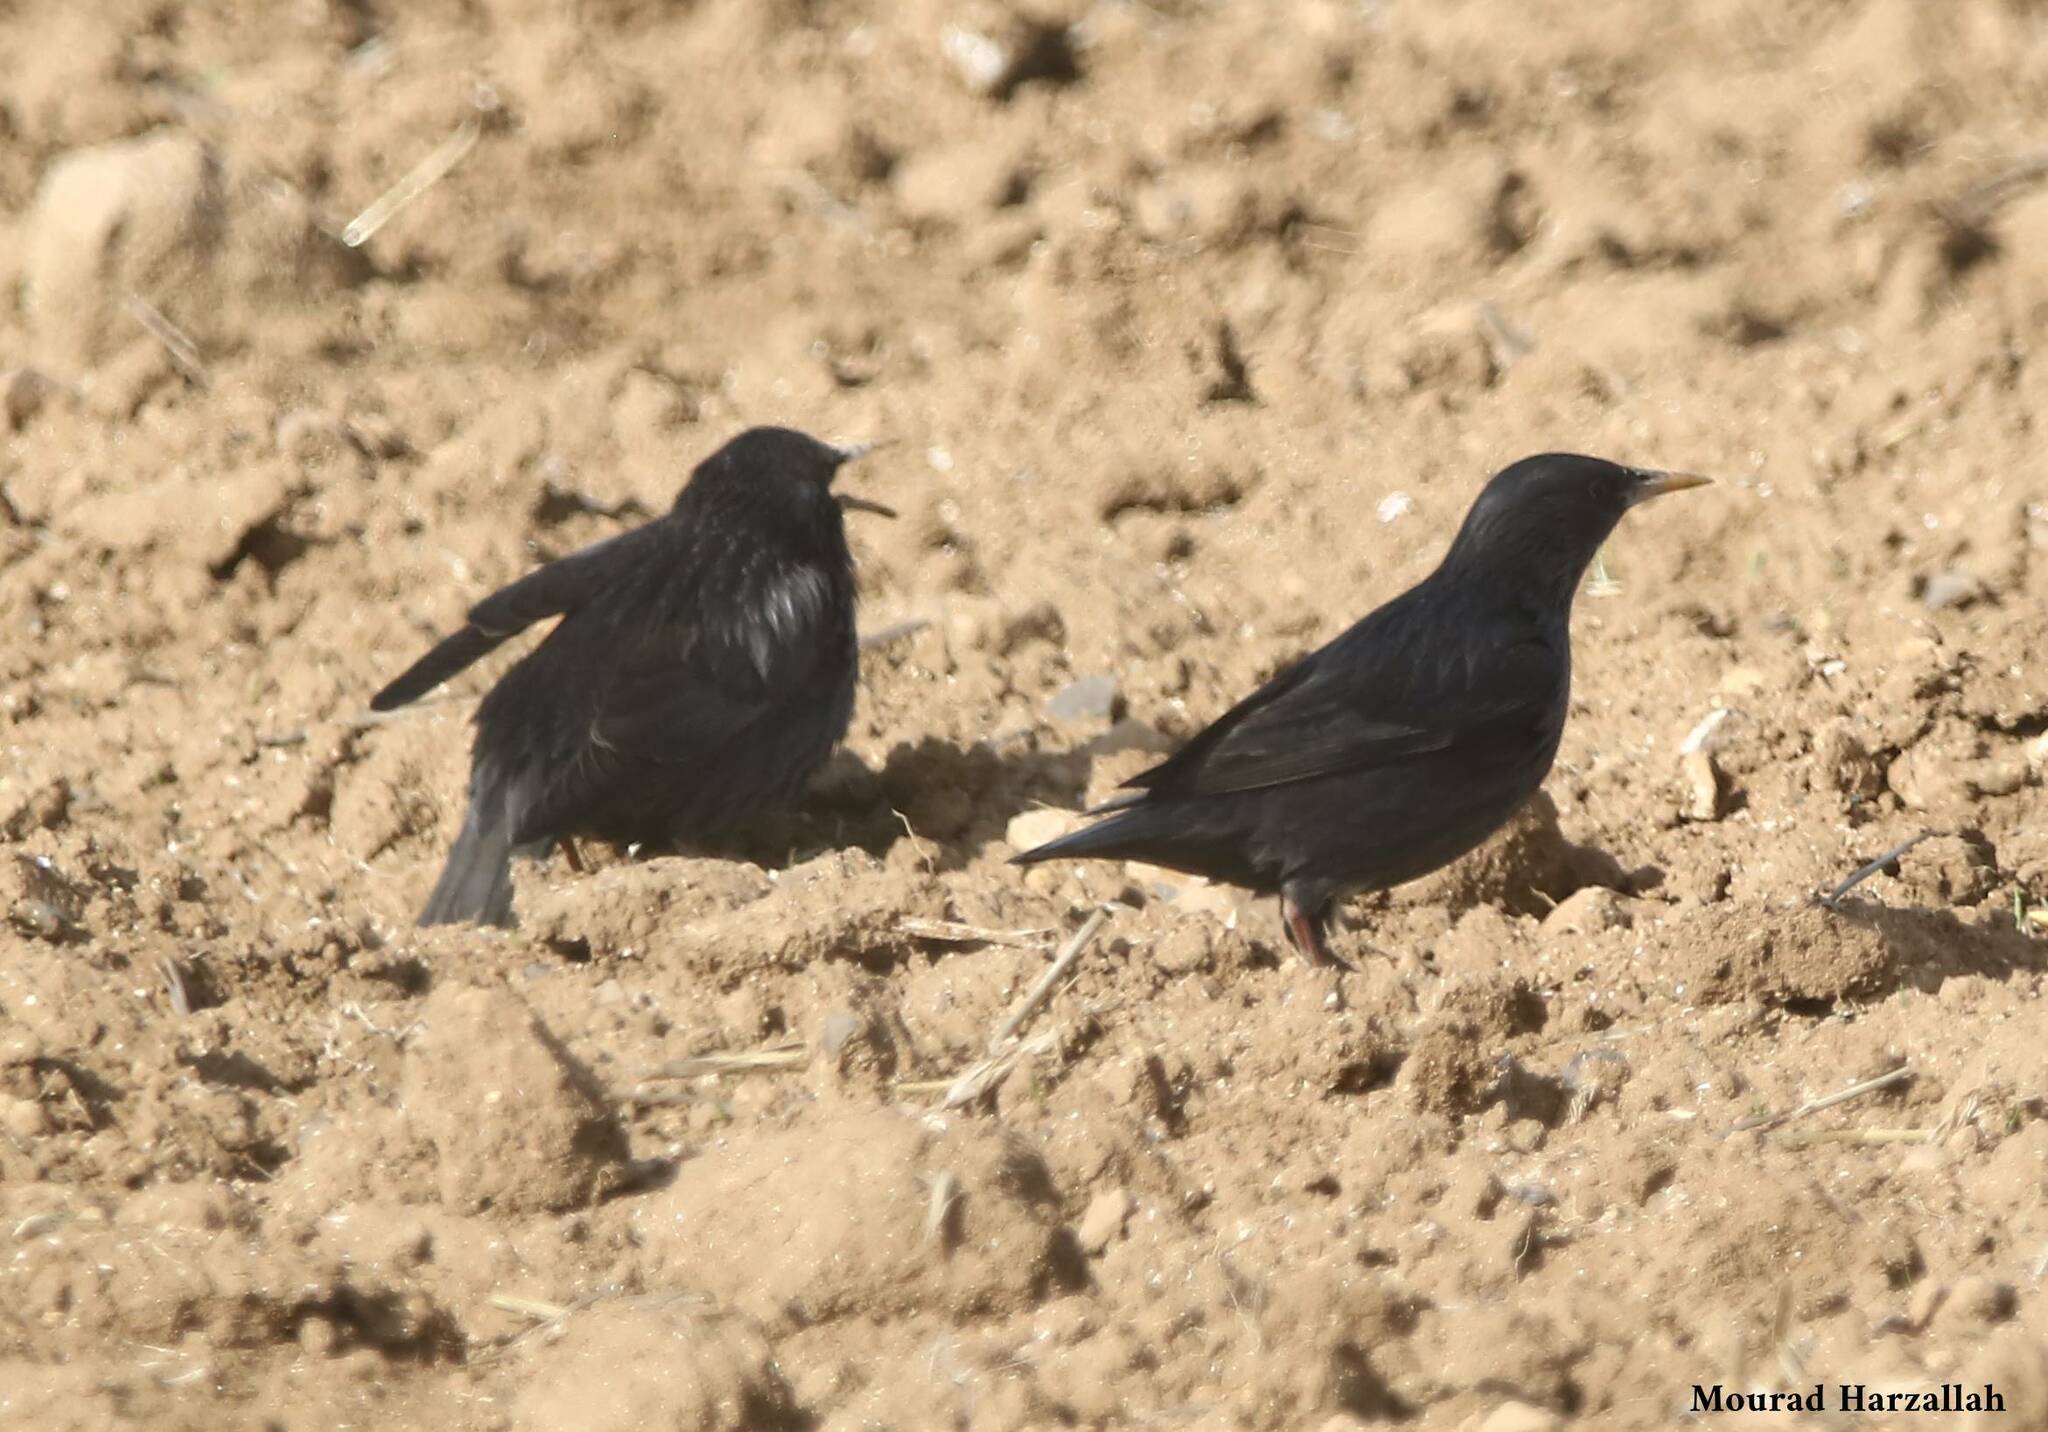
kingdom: Animalia
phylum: Chordata
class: Aves
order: Passeriformes
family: Sturnidae
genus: Sturnus
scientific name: Sturnus unicolor
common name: Spotless starling
